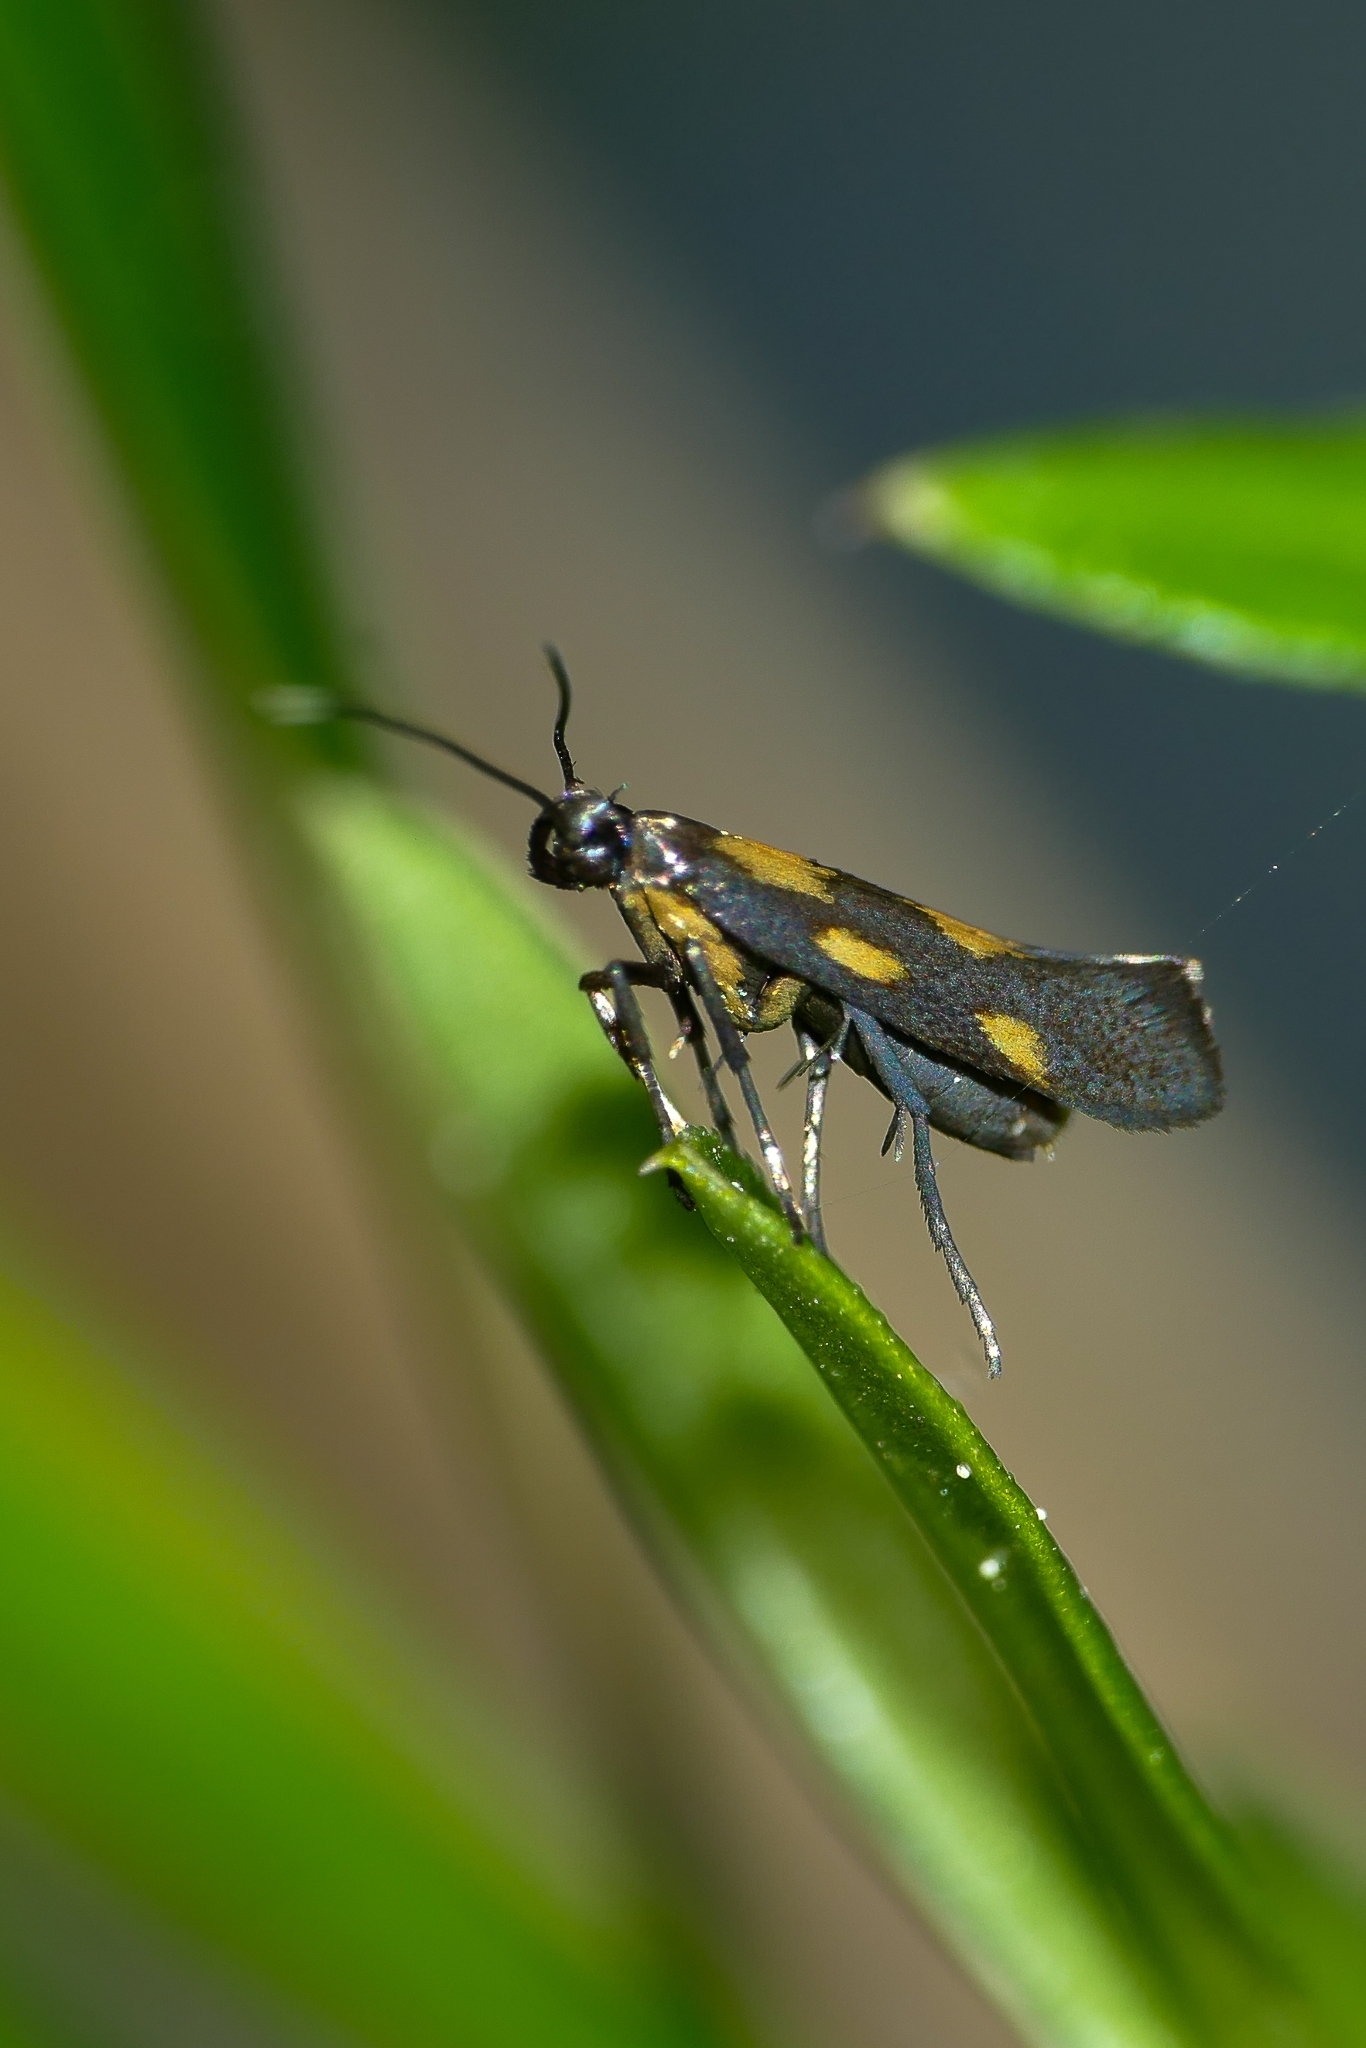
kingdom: Animalia
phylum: Arthropoda
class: Insecta
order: Lepidoptera
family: Gracillariidae
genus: Euspilapteryx
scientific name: Euspilapteryx auroguttella
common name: Gold-dot slender
